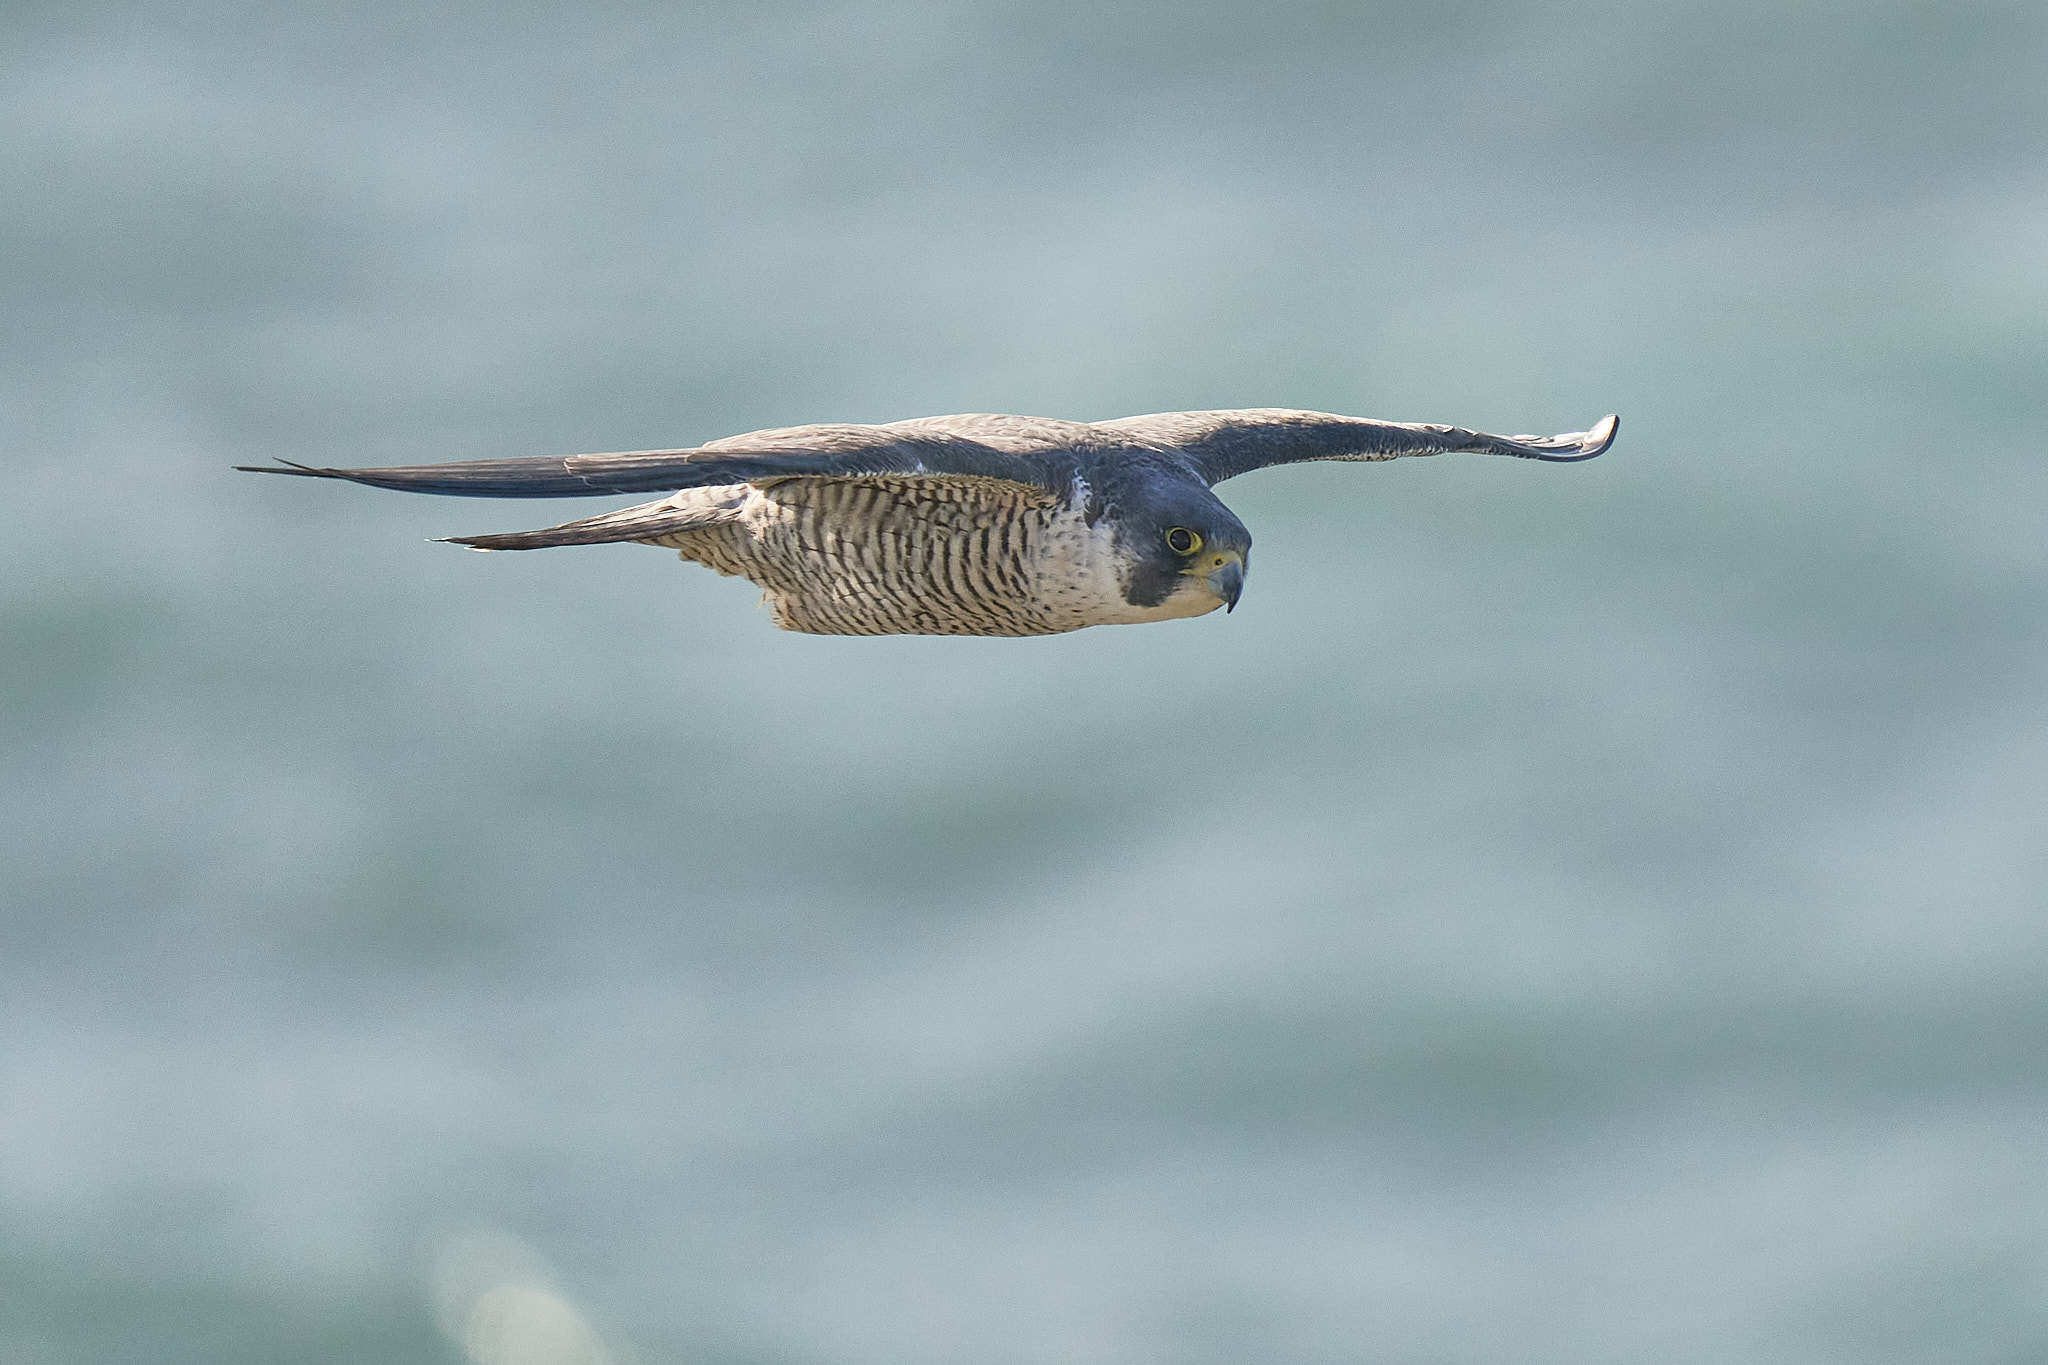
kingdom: Animalia
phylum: Chordata
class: Aves
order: Falconiformes
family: Falconidae
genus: Falco
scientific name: Falco peregrinus
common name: Peregrine falcon
